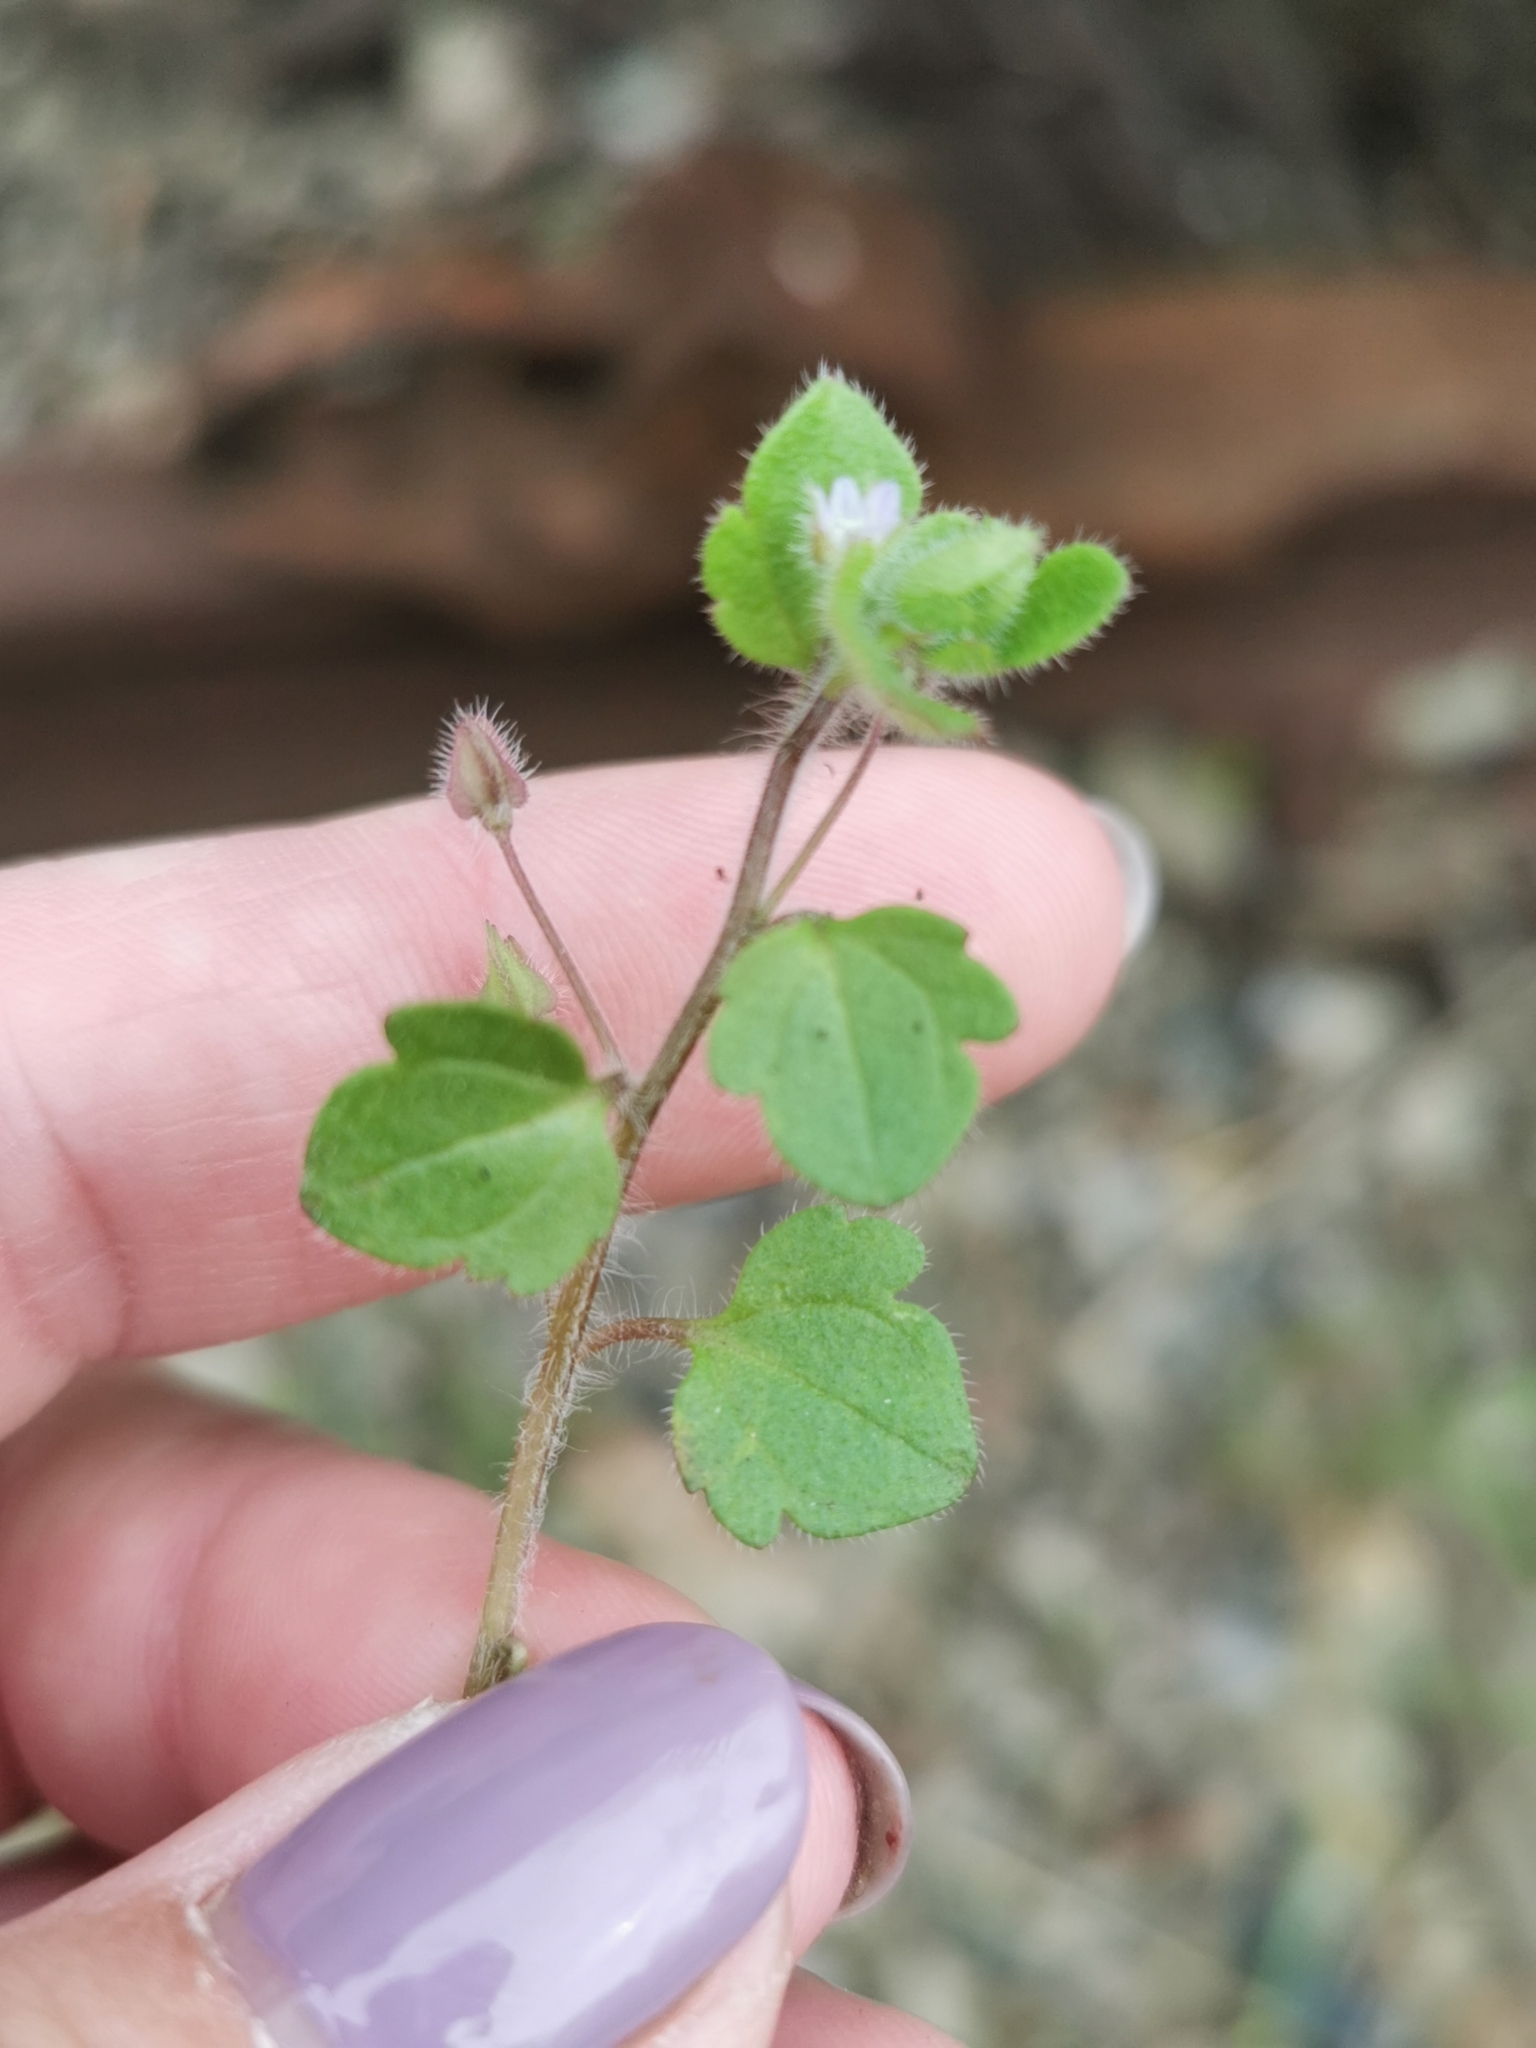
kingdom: Plantae
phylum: Tracheophyta
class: Magnoliopsida
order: Lamiales
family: Plantaginaceae
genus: Veronica
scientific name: Veronica sublobata
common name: False ivy-leaved speedwell
